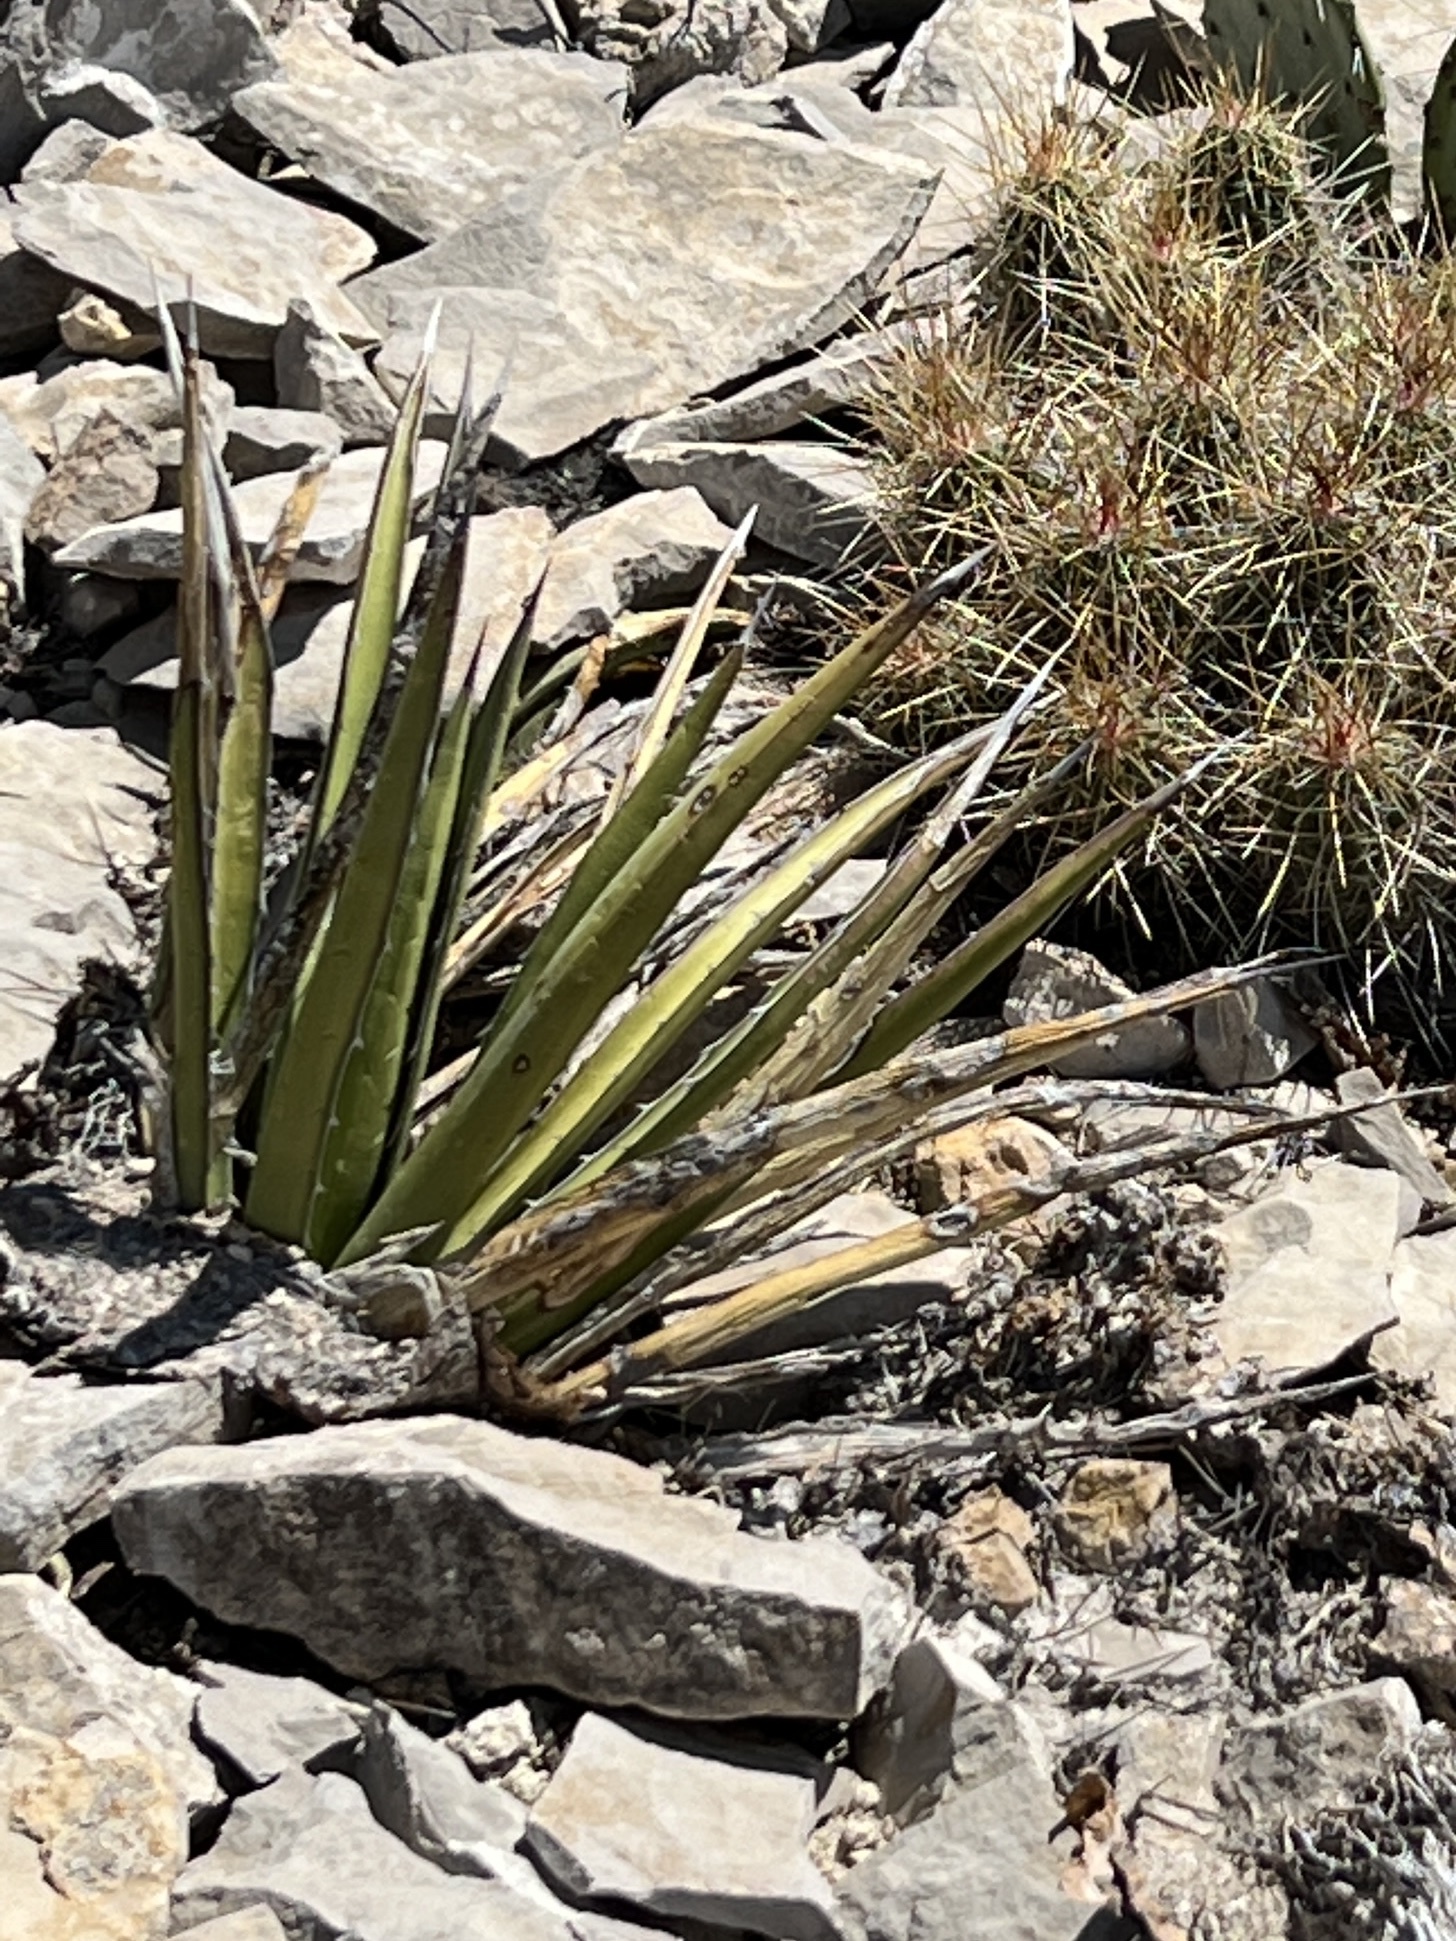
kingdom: Plantae
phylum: Tracheophyta
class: Liliopsida
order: Asparagales
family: Asparagaceae
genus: Agave
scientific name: Agave lechuguilla
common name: Lecheguilla agave
